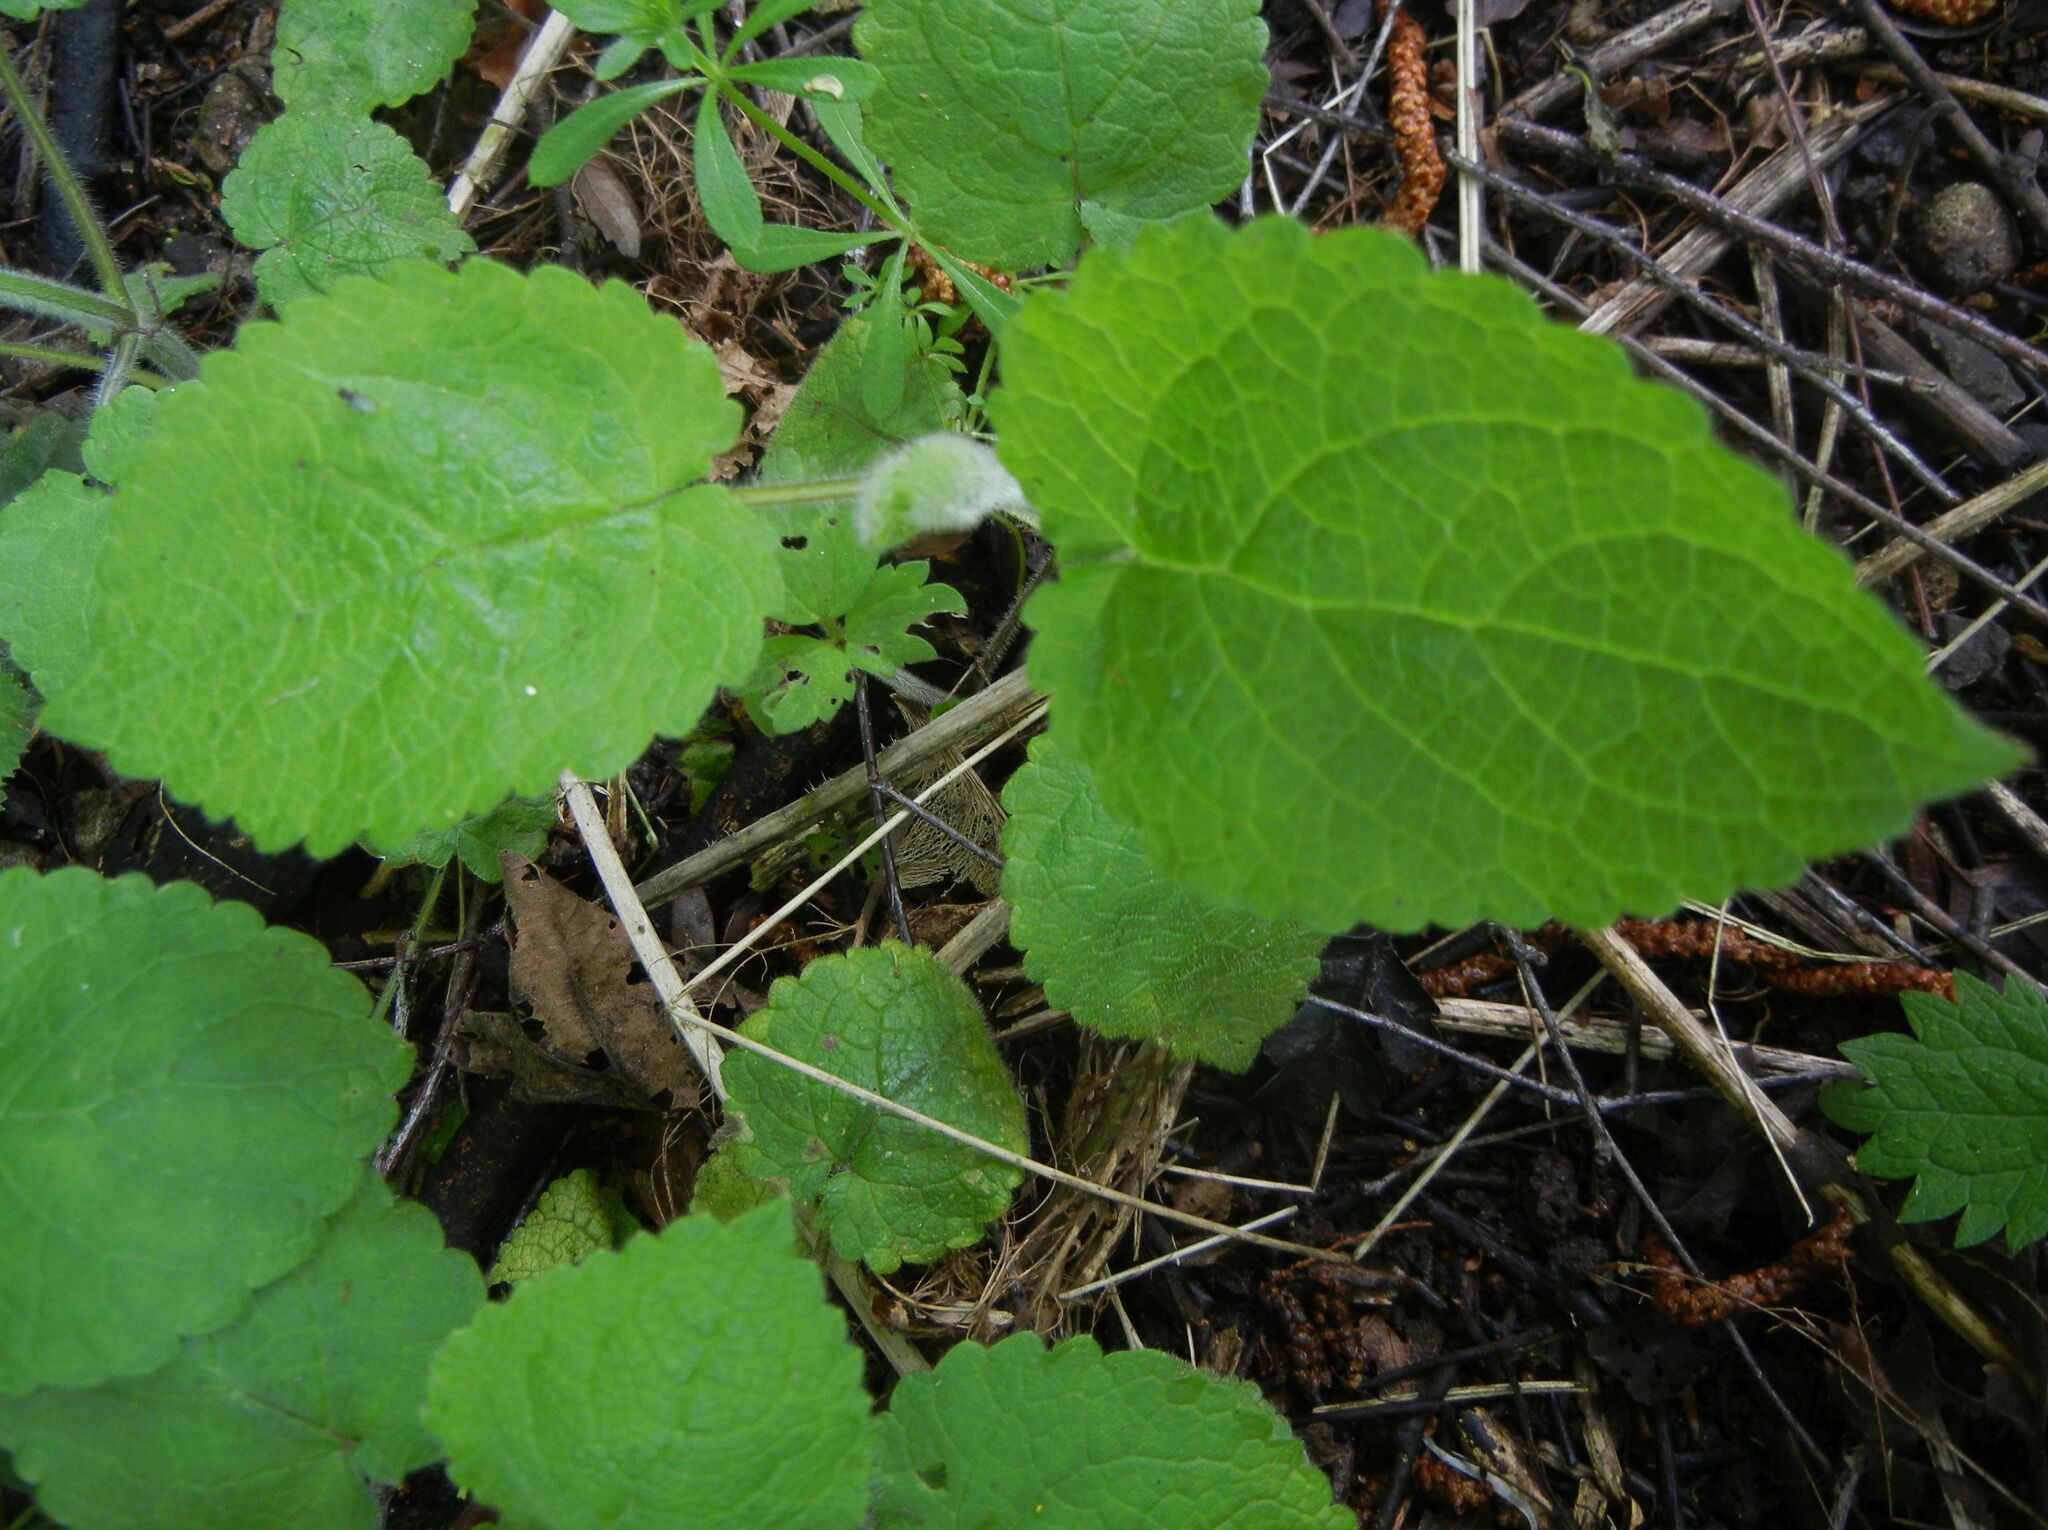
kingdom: Plantae
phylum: Tracheophyta
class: Magnoliopsida
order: Lamiales
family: Lamiaceae
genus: Stachys
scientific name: Stachys sylvatica
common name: Hedge woundwort
